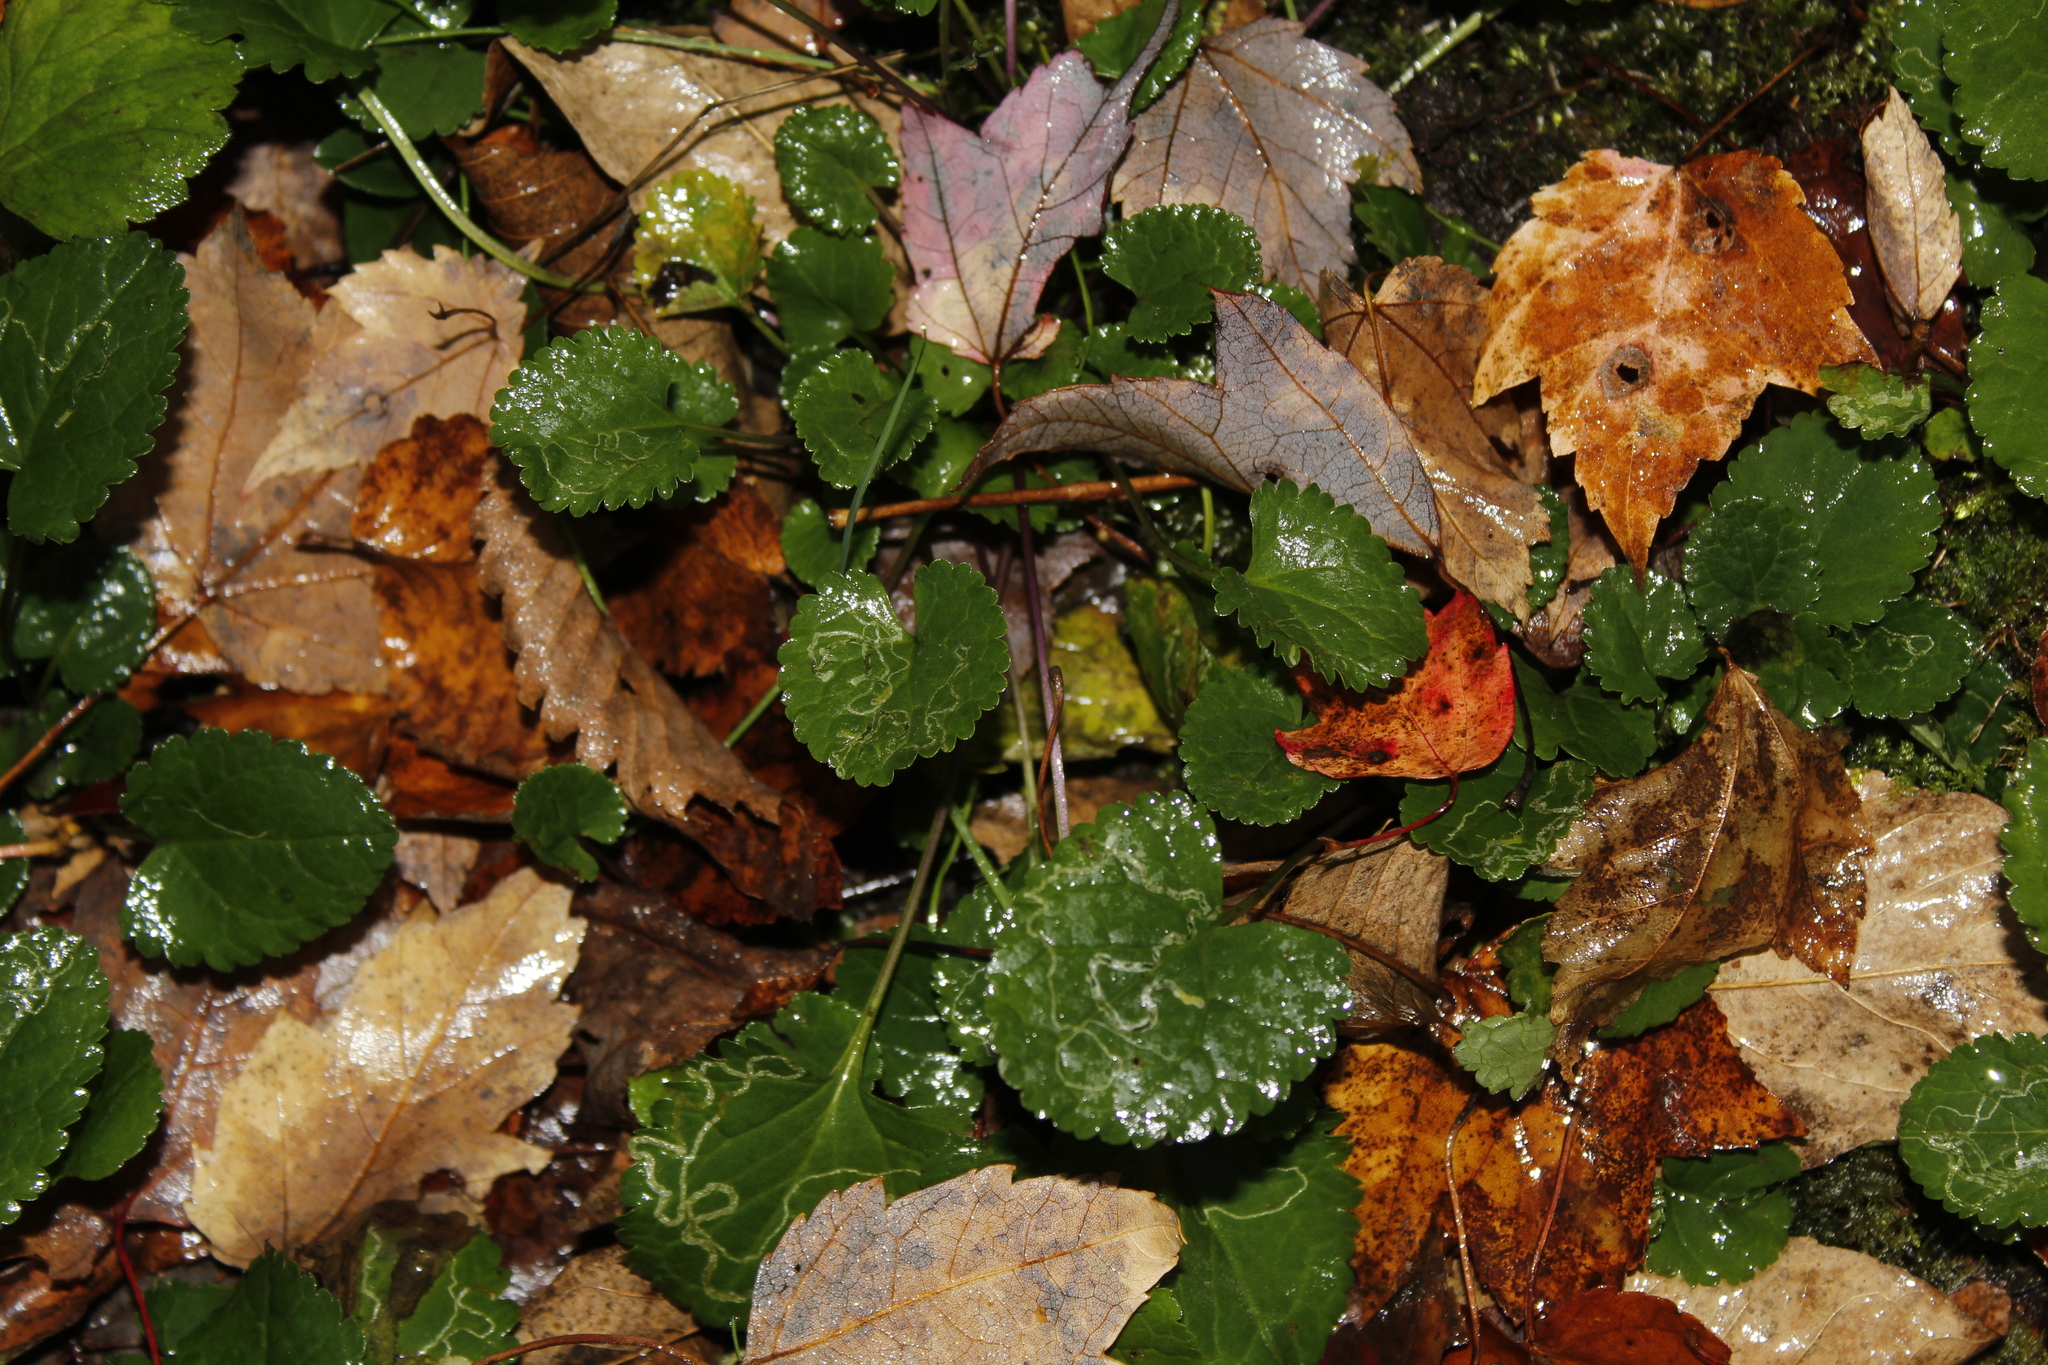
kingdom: Animalia
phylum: Arthropoda
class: Insecta
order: Lepidoptera
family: Gracillariidae
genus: Phyllocnistis
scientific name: Phyllocnistis insignis
